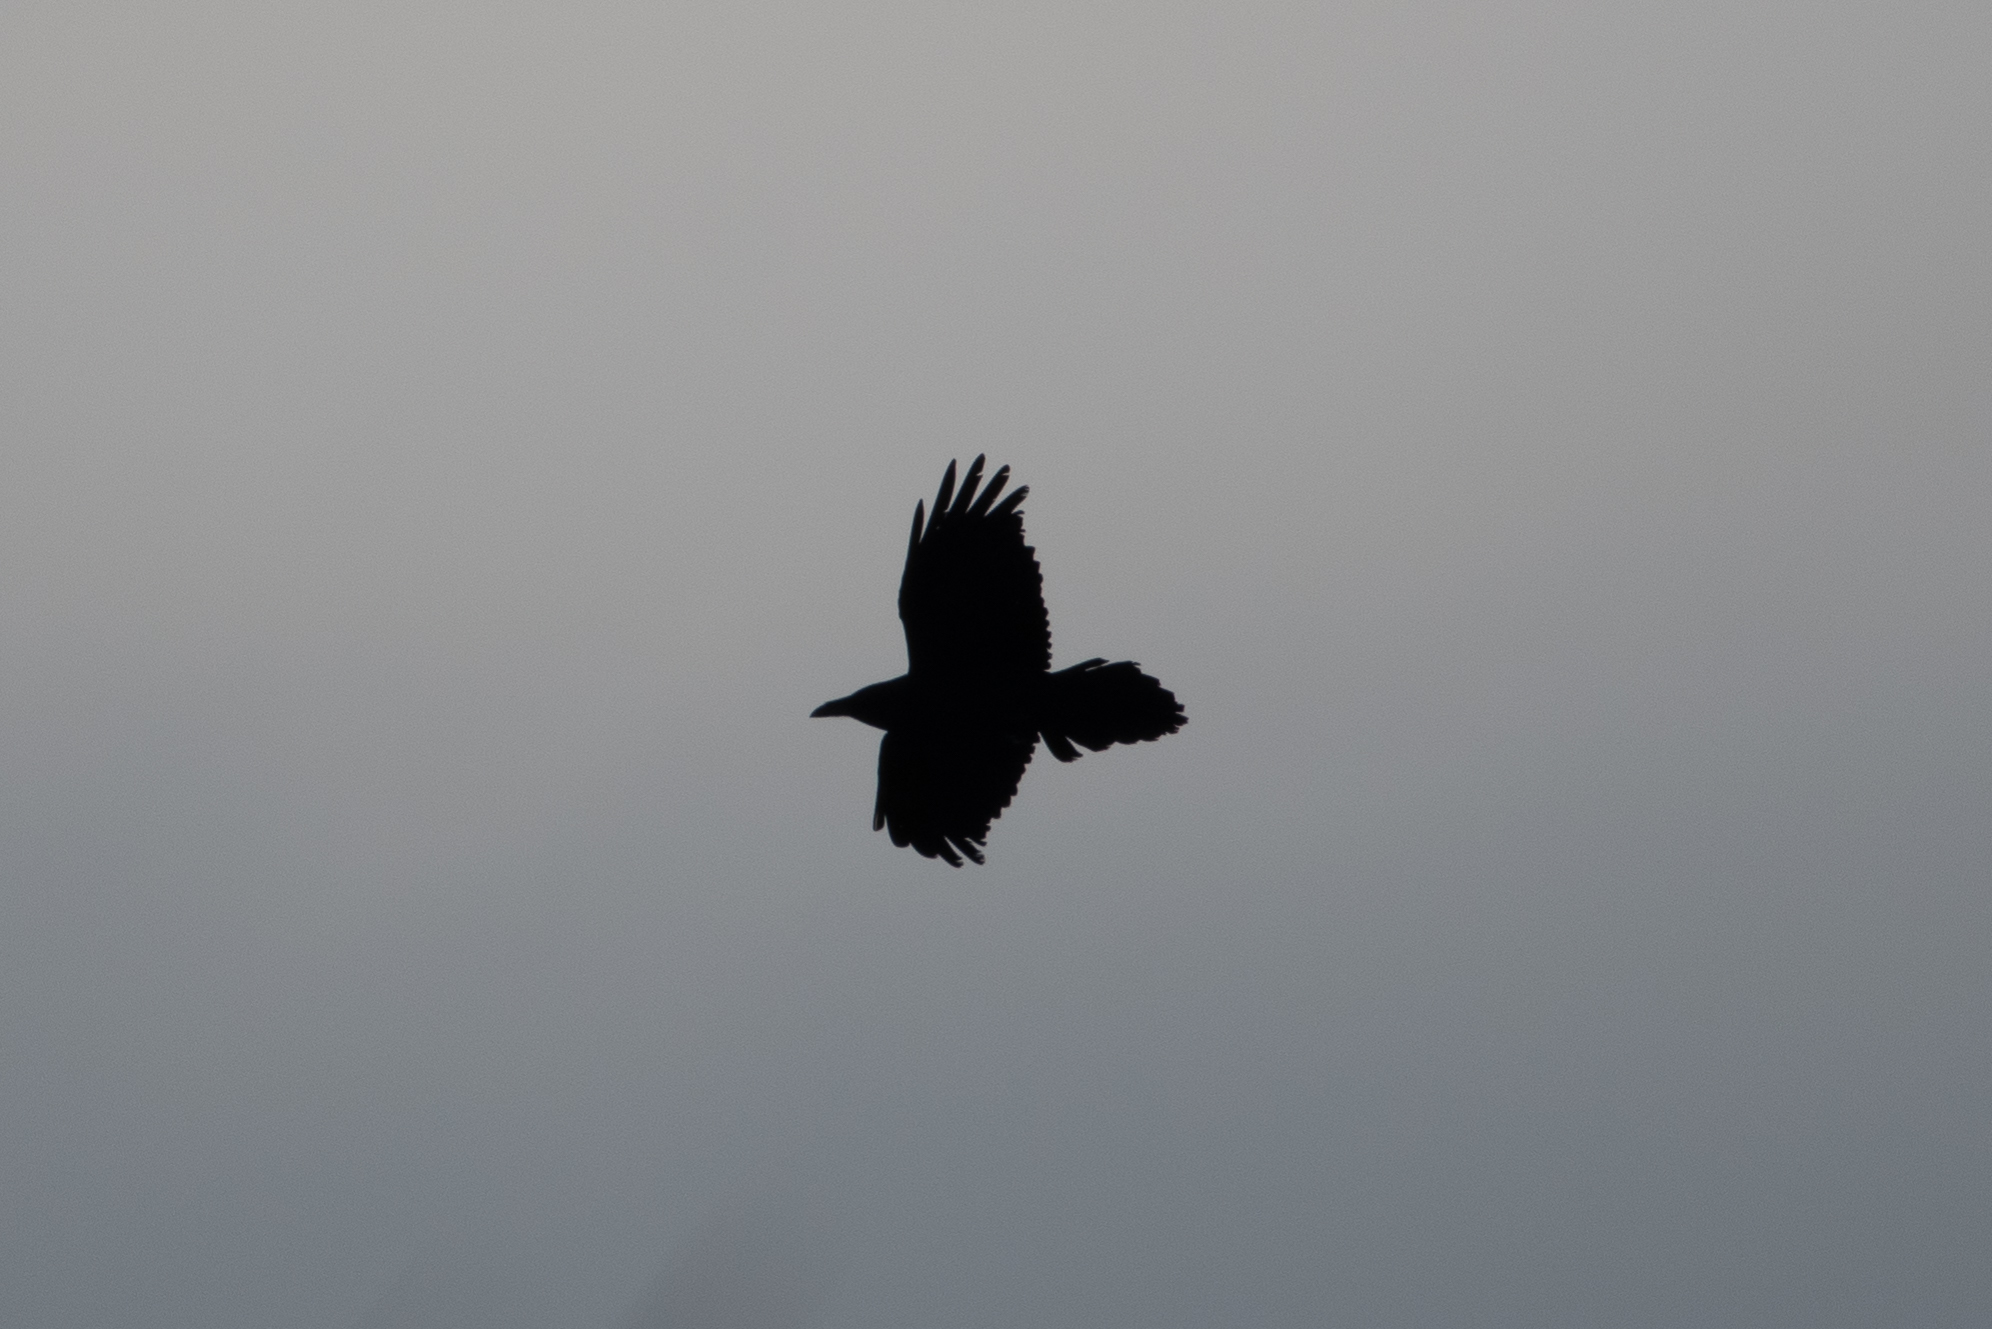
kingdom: Animalia
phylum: Chordata
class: Aves
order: Passeriformes
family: Corvidae
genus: Corvus
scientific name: Corvus corax
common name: Common raven
